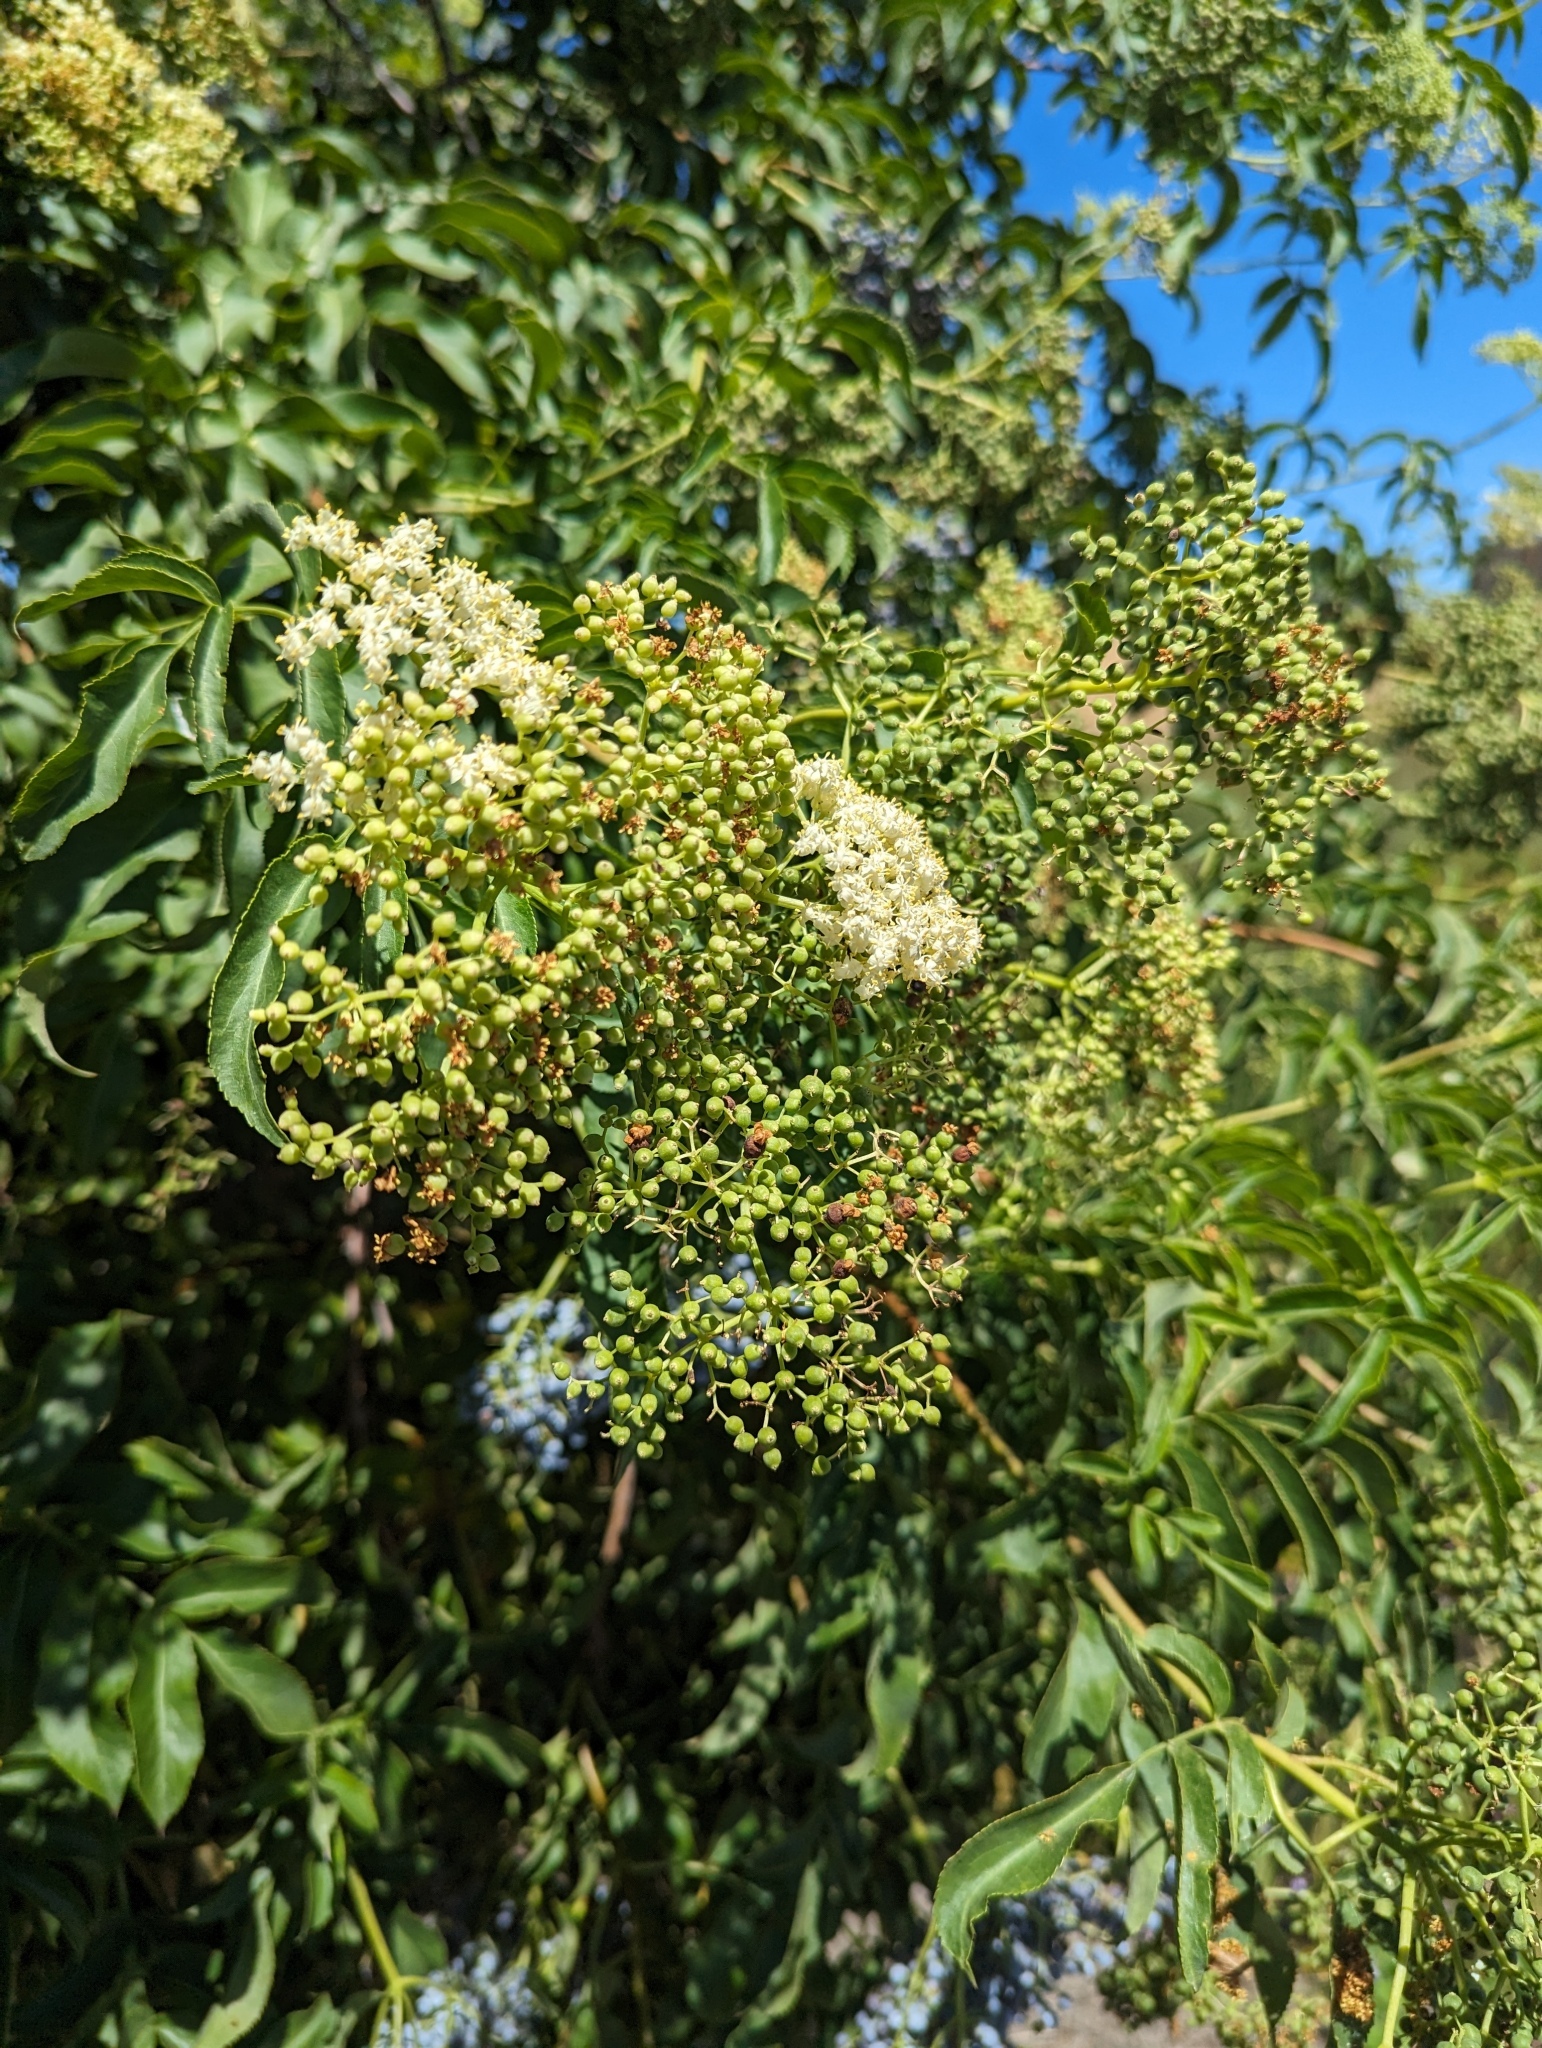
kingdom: Plantae
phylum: Tracheophyta
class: Magnoliopsida
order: Dipsacales
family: Viburnaceae
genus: Sambucus
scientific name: Sambucus cerulea
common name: Blue elder
